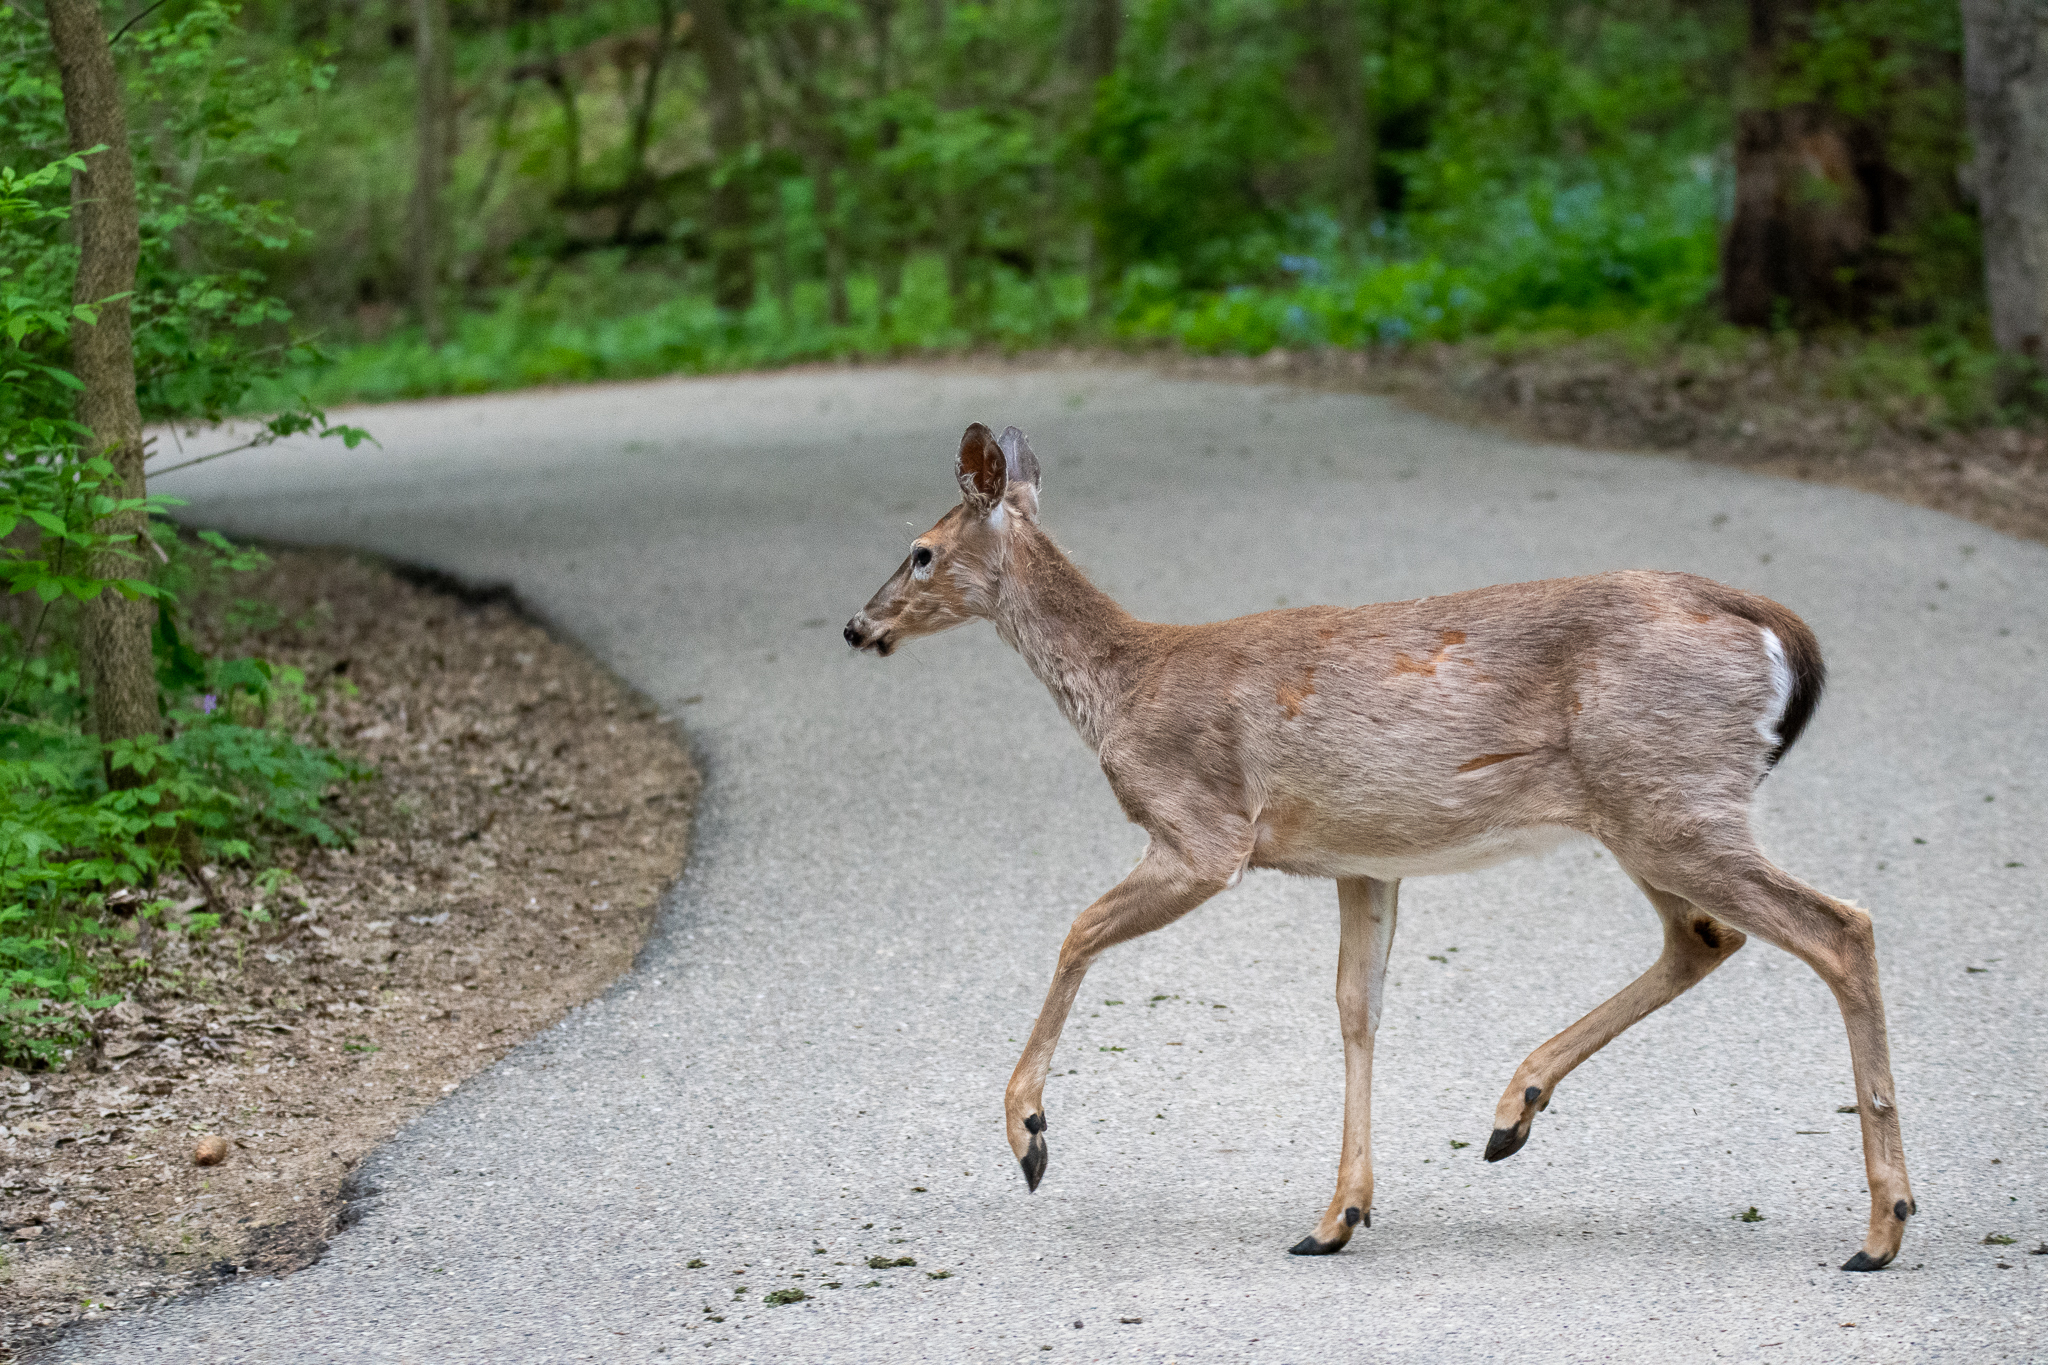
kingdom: Animalia
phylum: Chordata
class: Mammalia
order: Artiodactyla
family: Cervidae
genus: Odocoileus
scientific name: Odocoileus virginianus
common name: White-tailed deer
